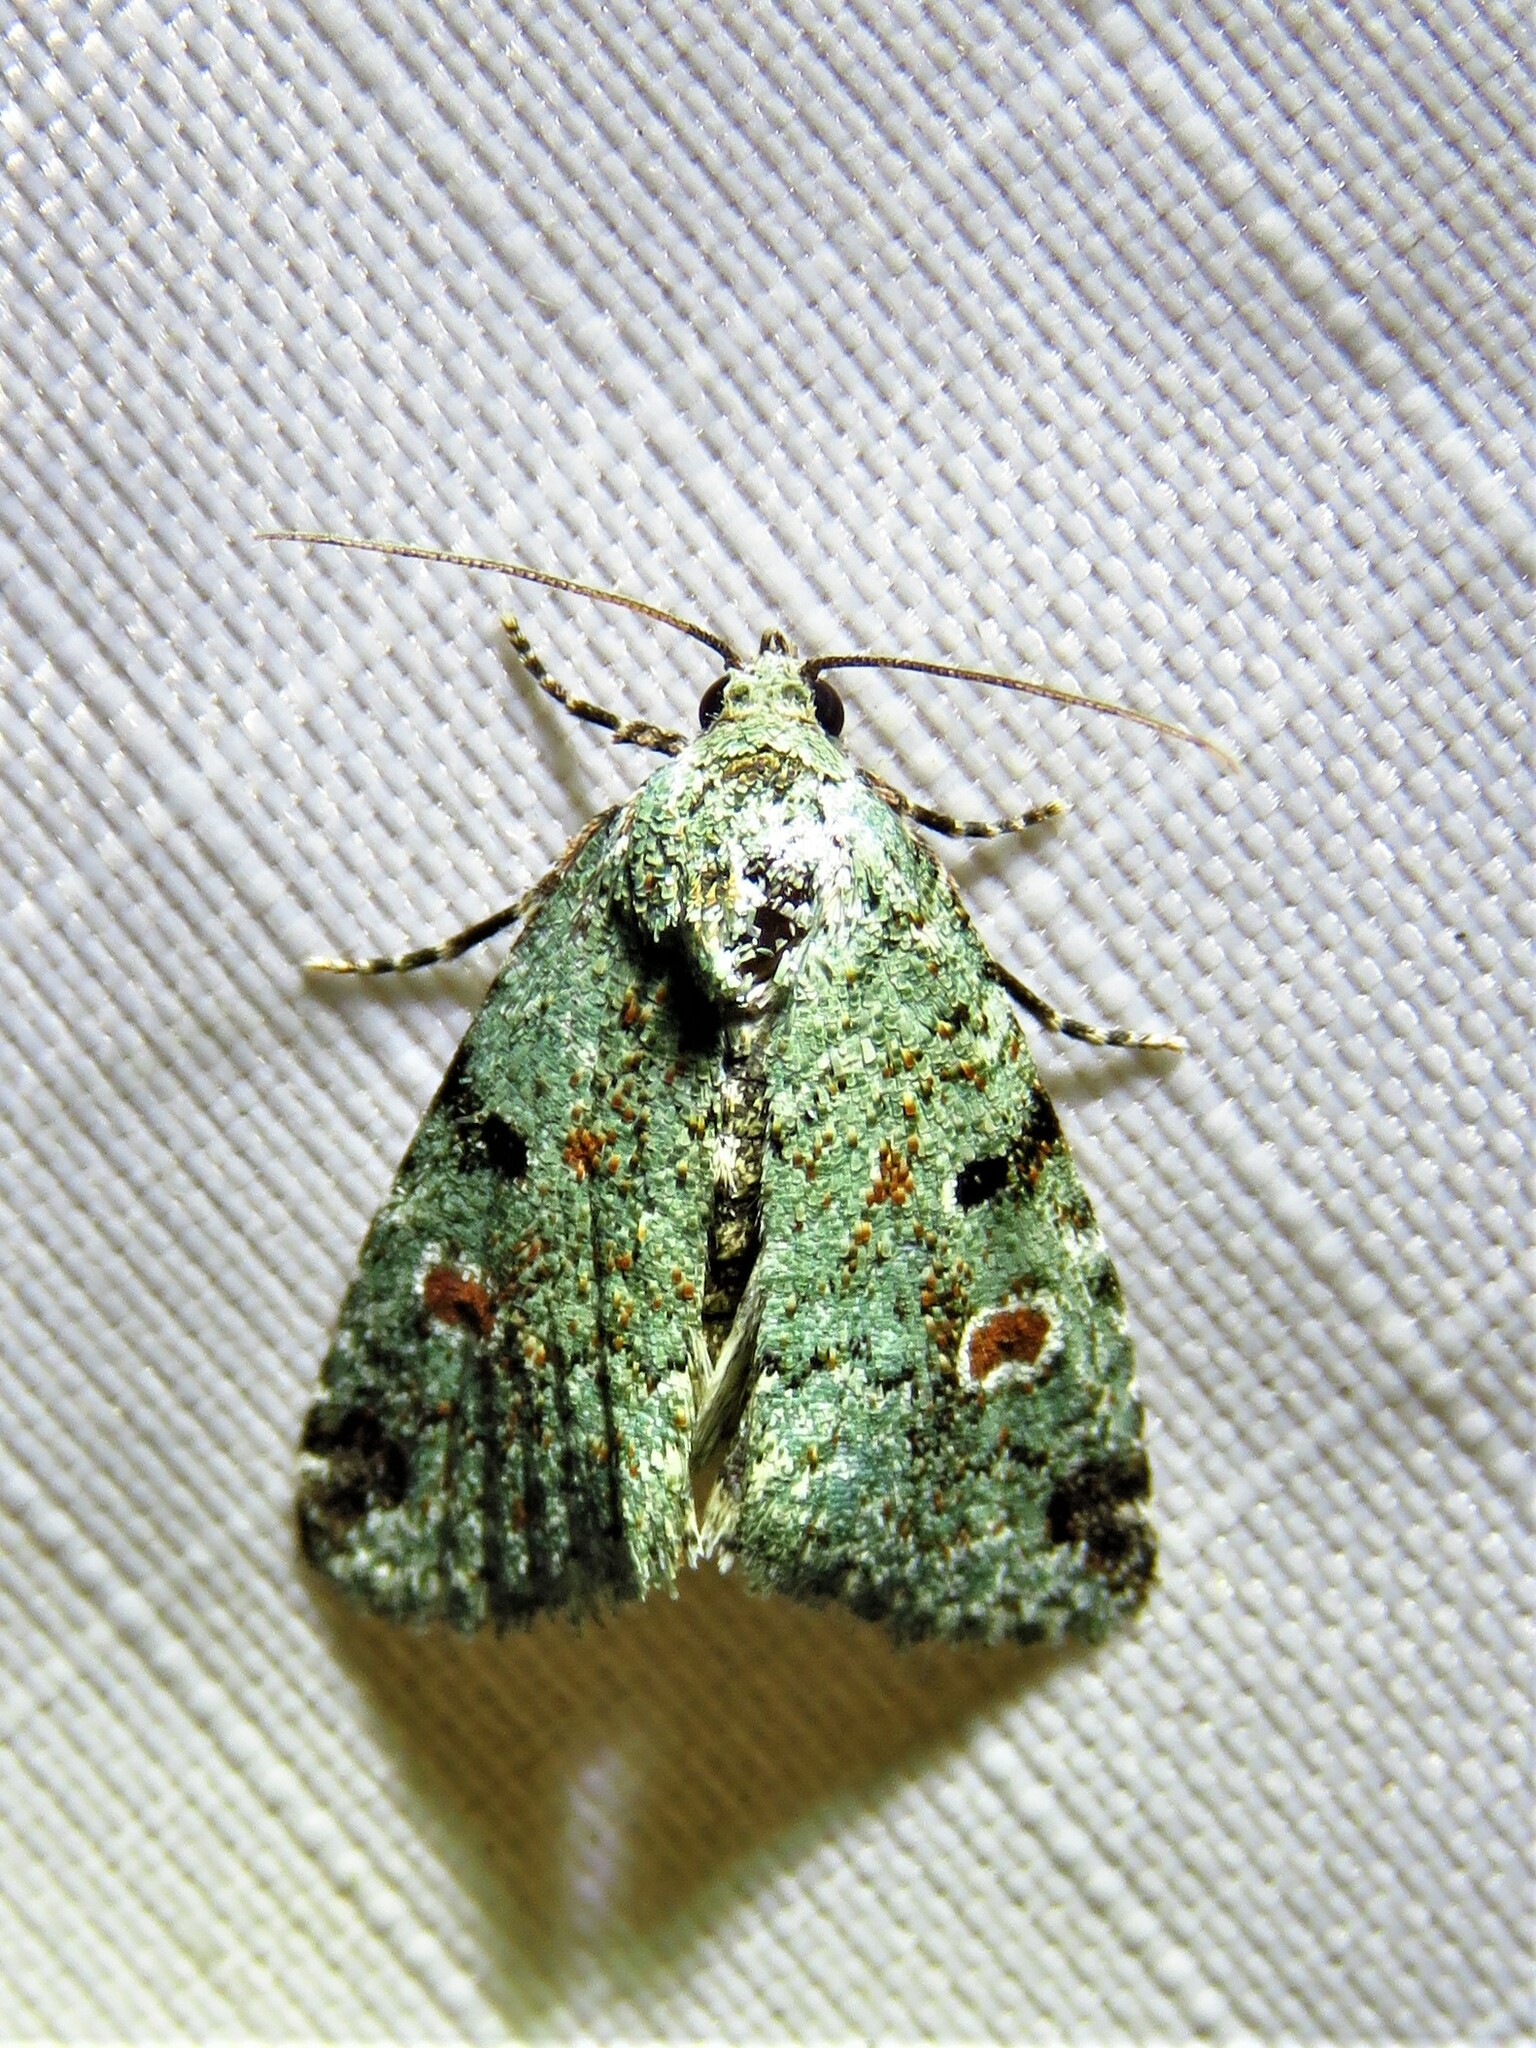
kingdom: Animalia
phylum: Arthropoda
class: Insecta
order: Lepidoptera
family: Noctuidae
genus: Maliattha
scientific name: Maliattha concinnimacula
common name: Red-spotted glyph
